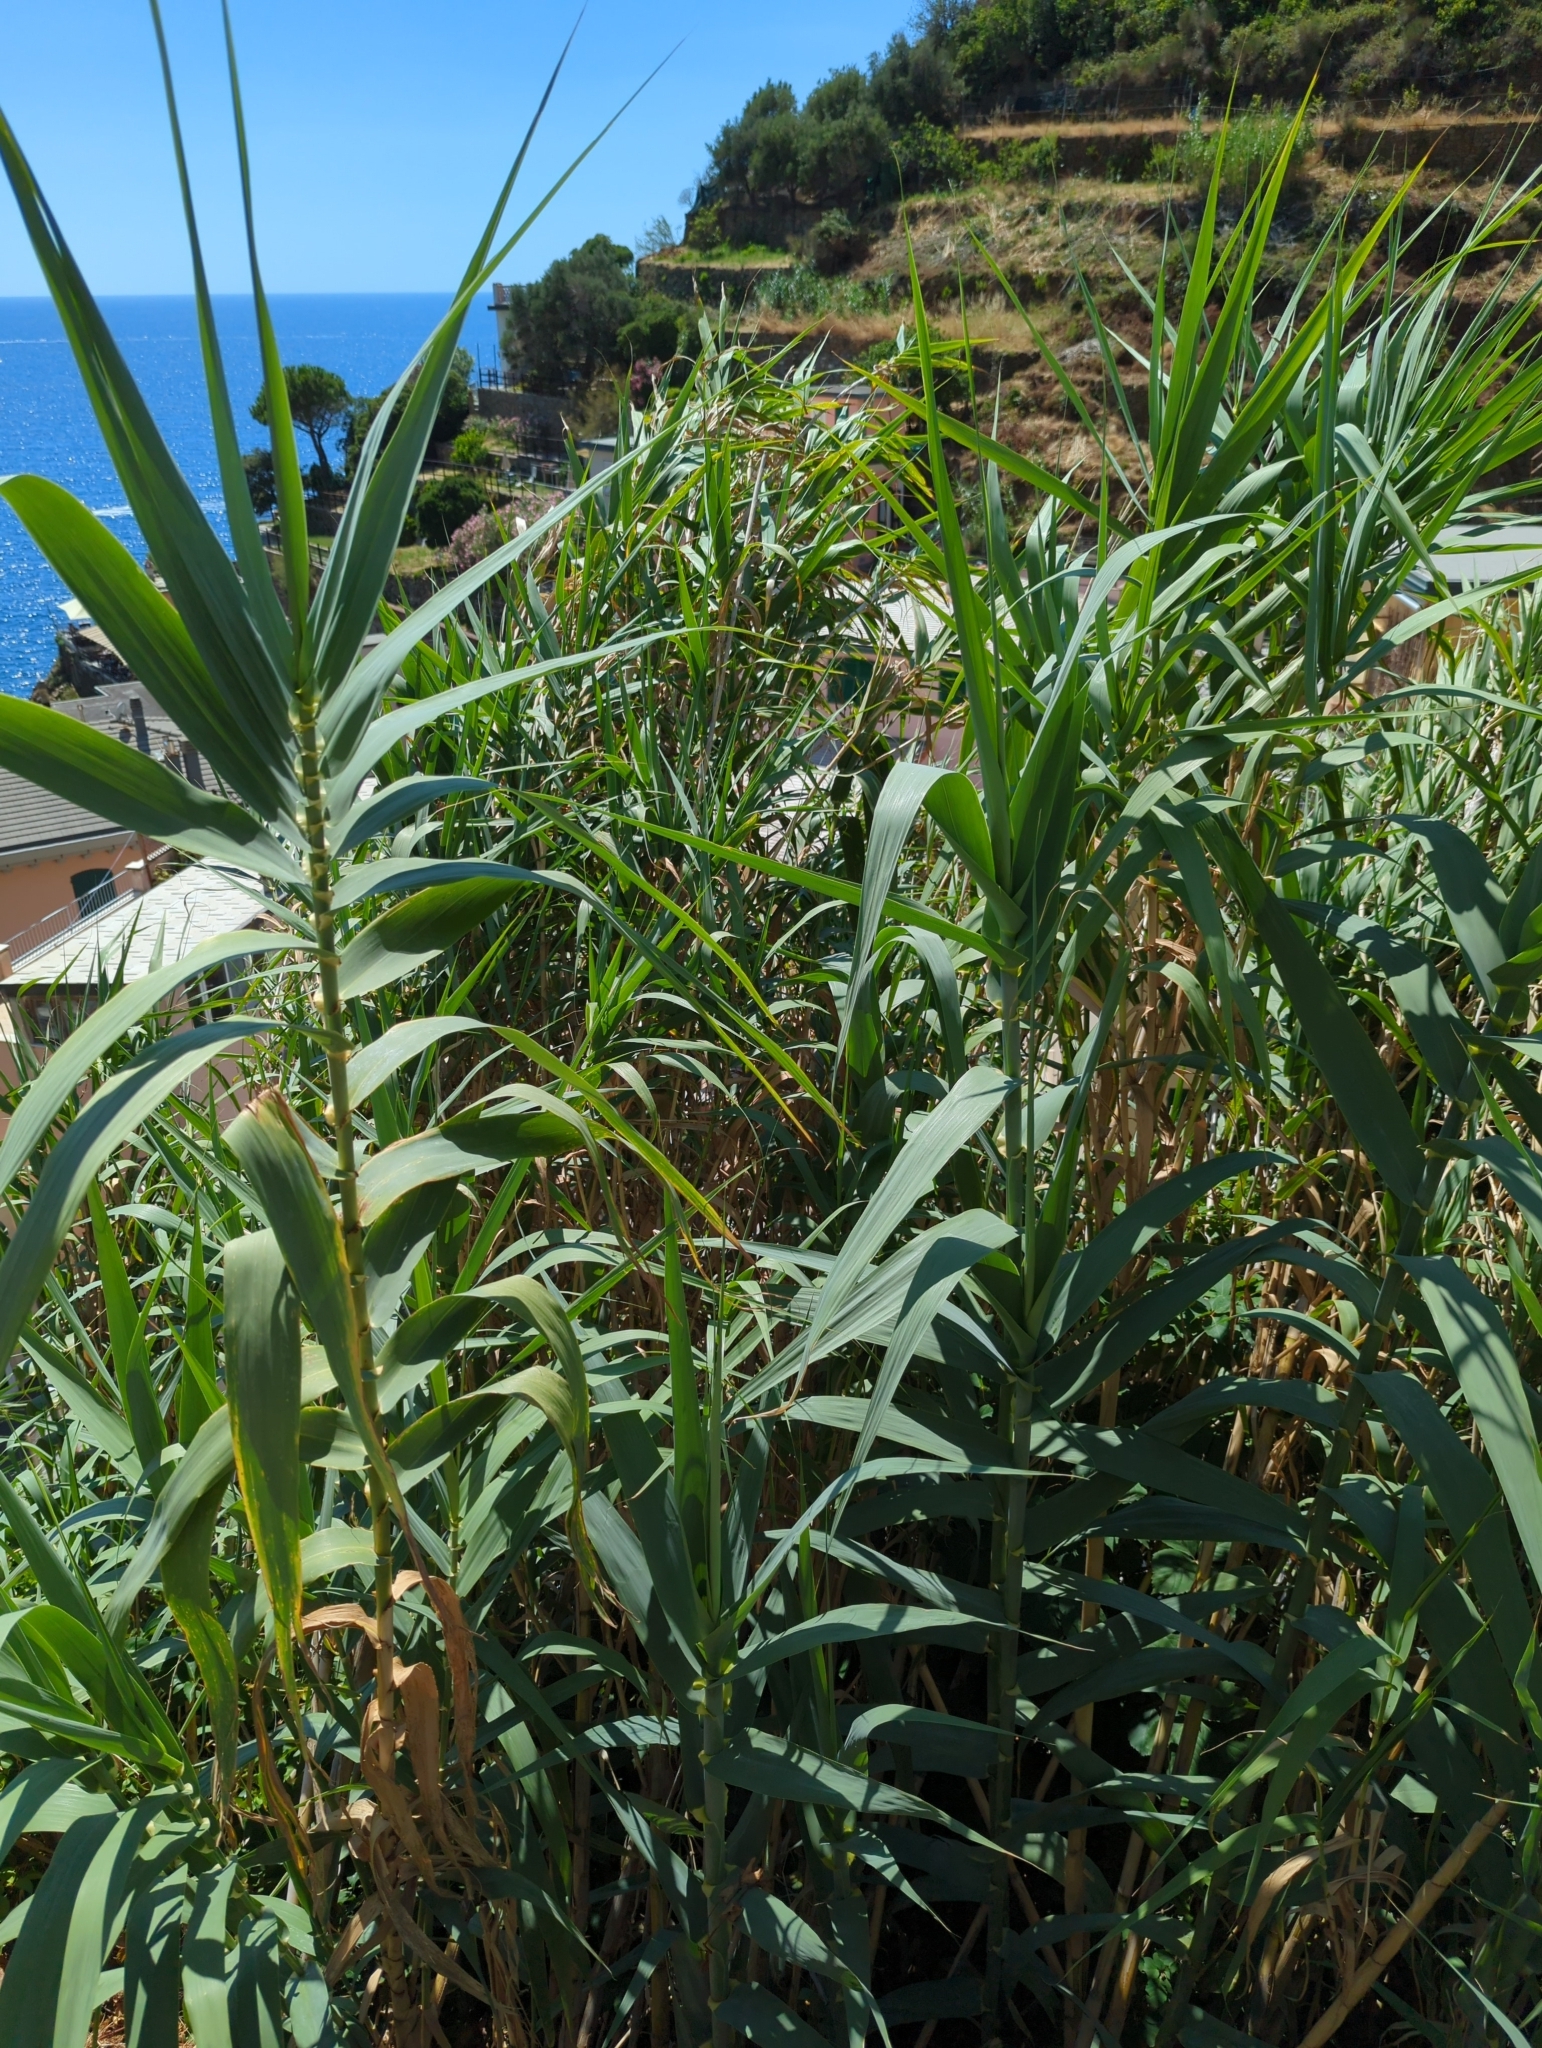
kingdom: Plantae
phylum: Tracheophyta
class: Liliopsida
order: Poales
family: Poaceae
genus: Arundo
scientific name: Arundo donax
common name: Giant reed
